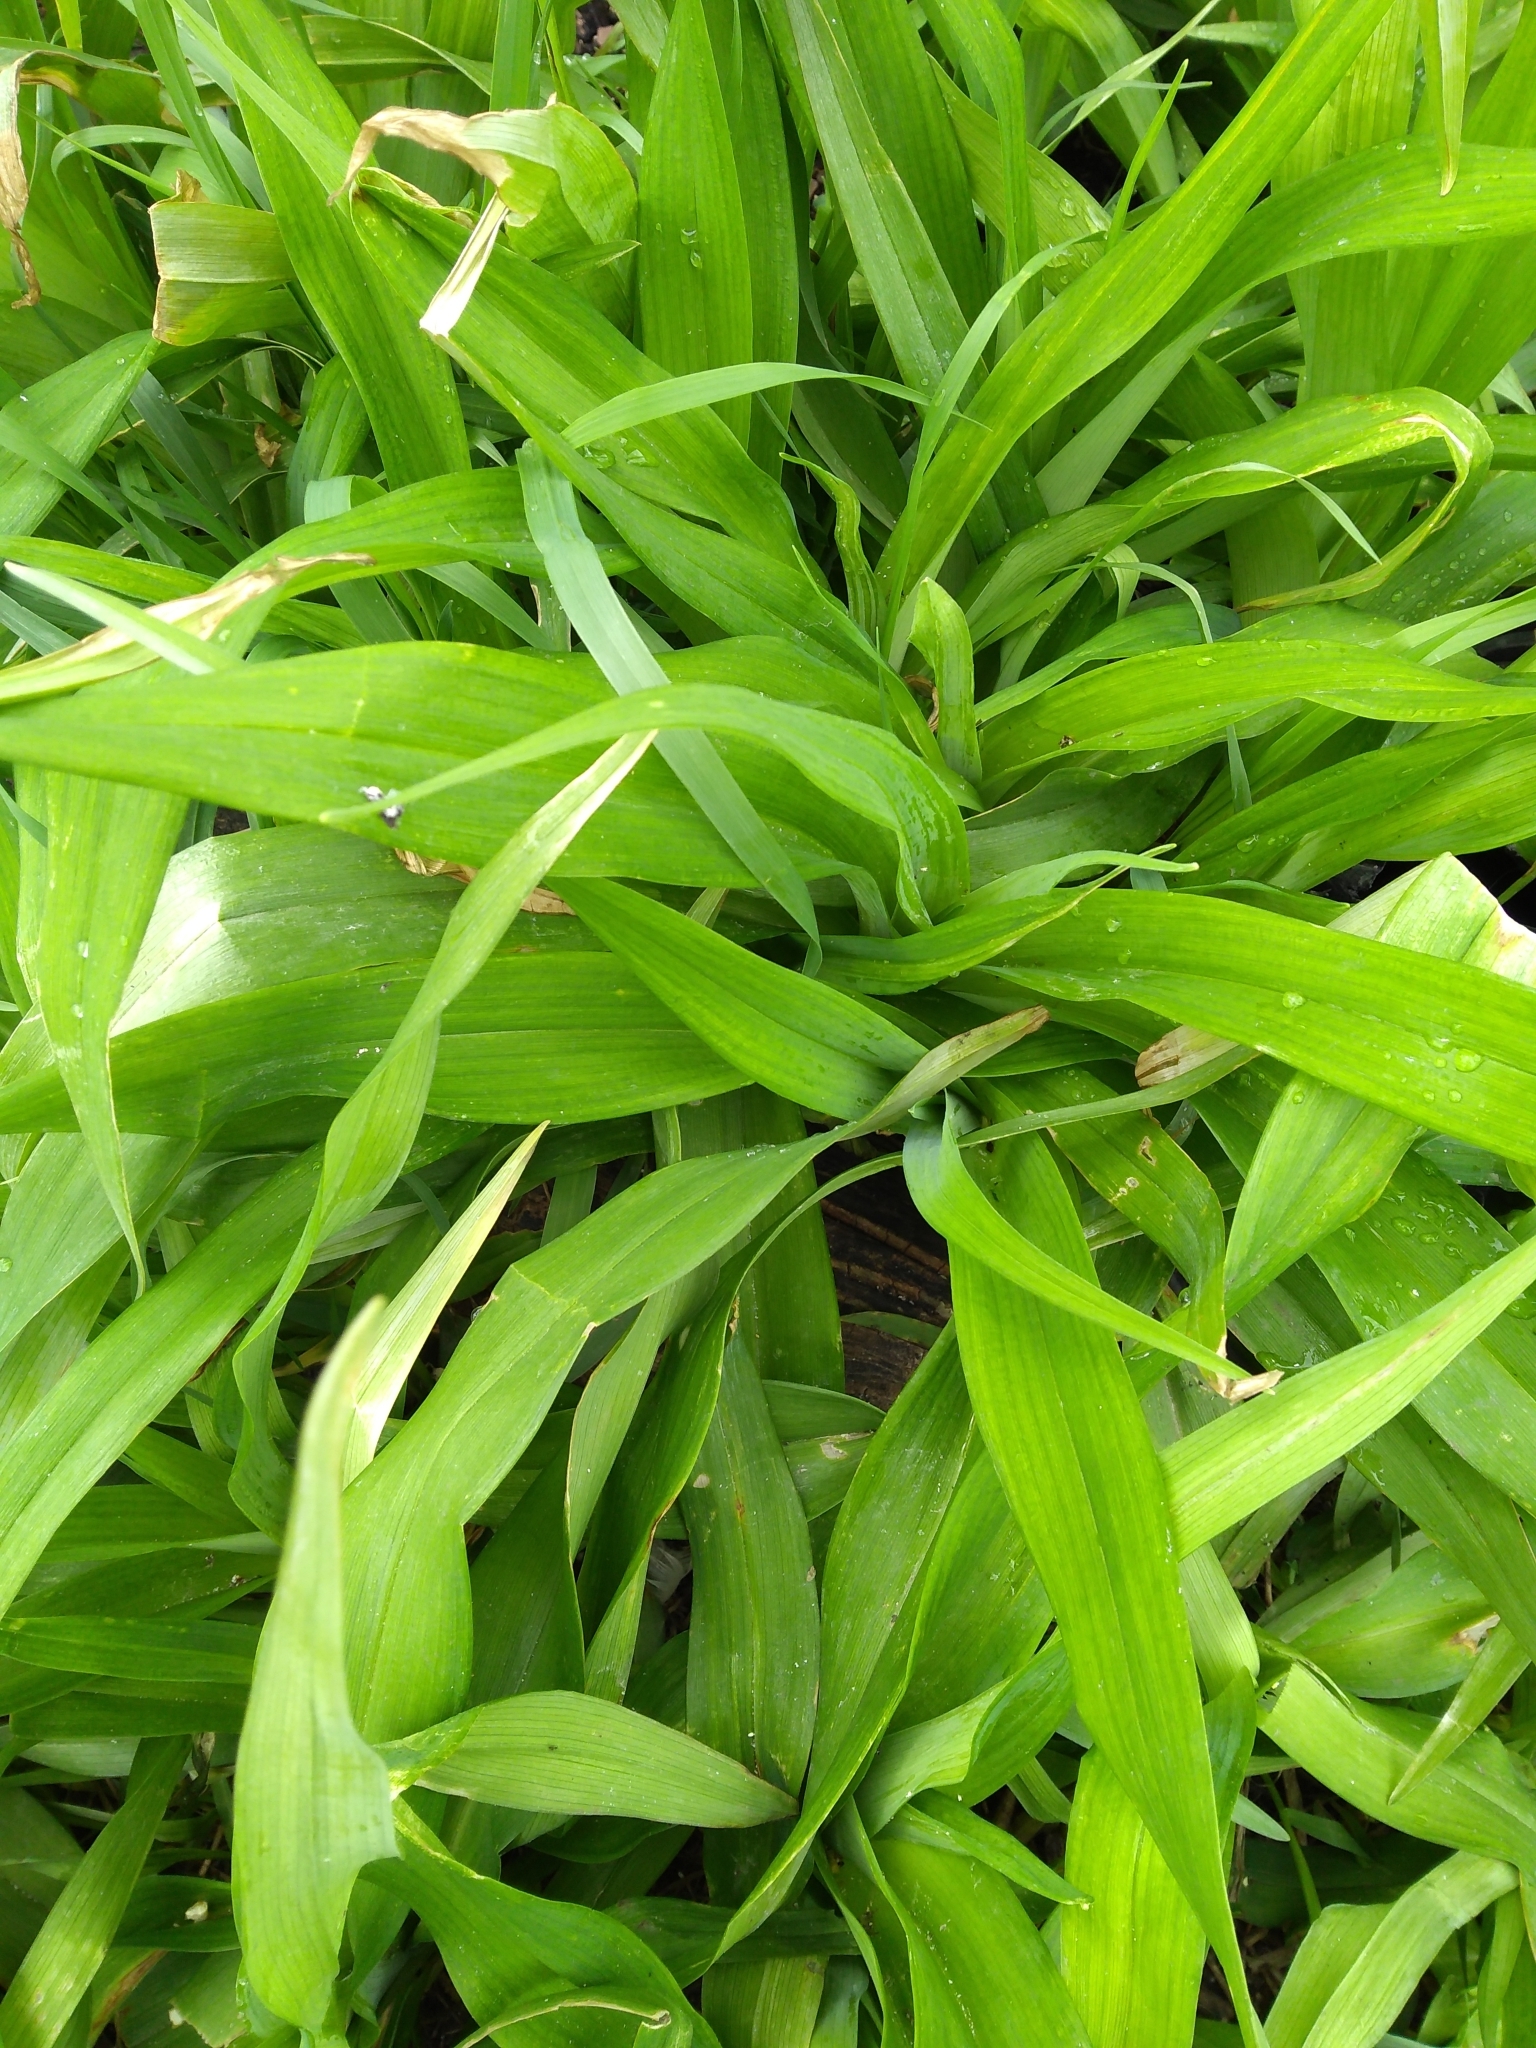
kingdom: Plantae
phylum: Tracheophyta
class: Liliopsida
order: Asparagales
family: Asphodelaceae
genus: Hemerocallis
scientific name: Hemerocallis fulva
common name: Orange day-lily
